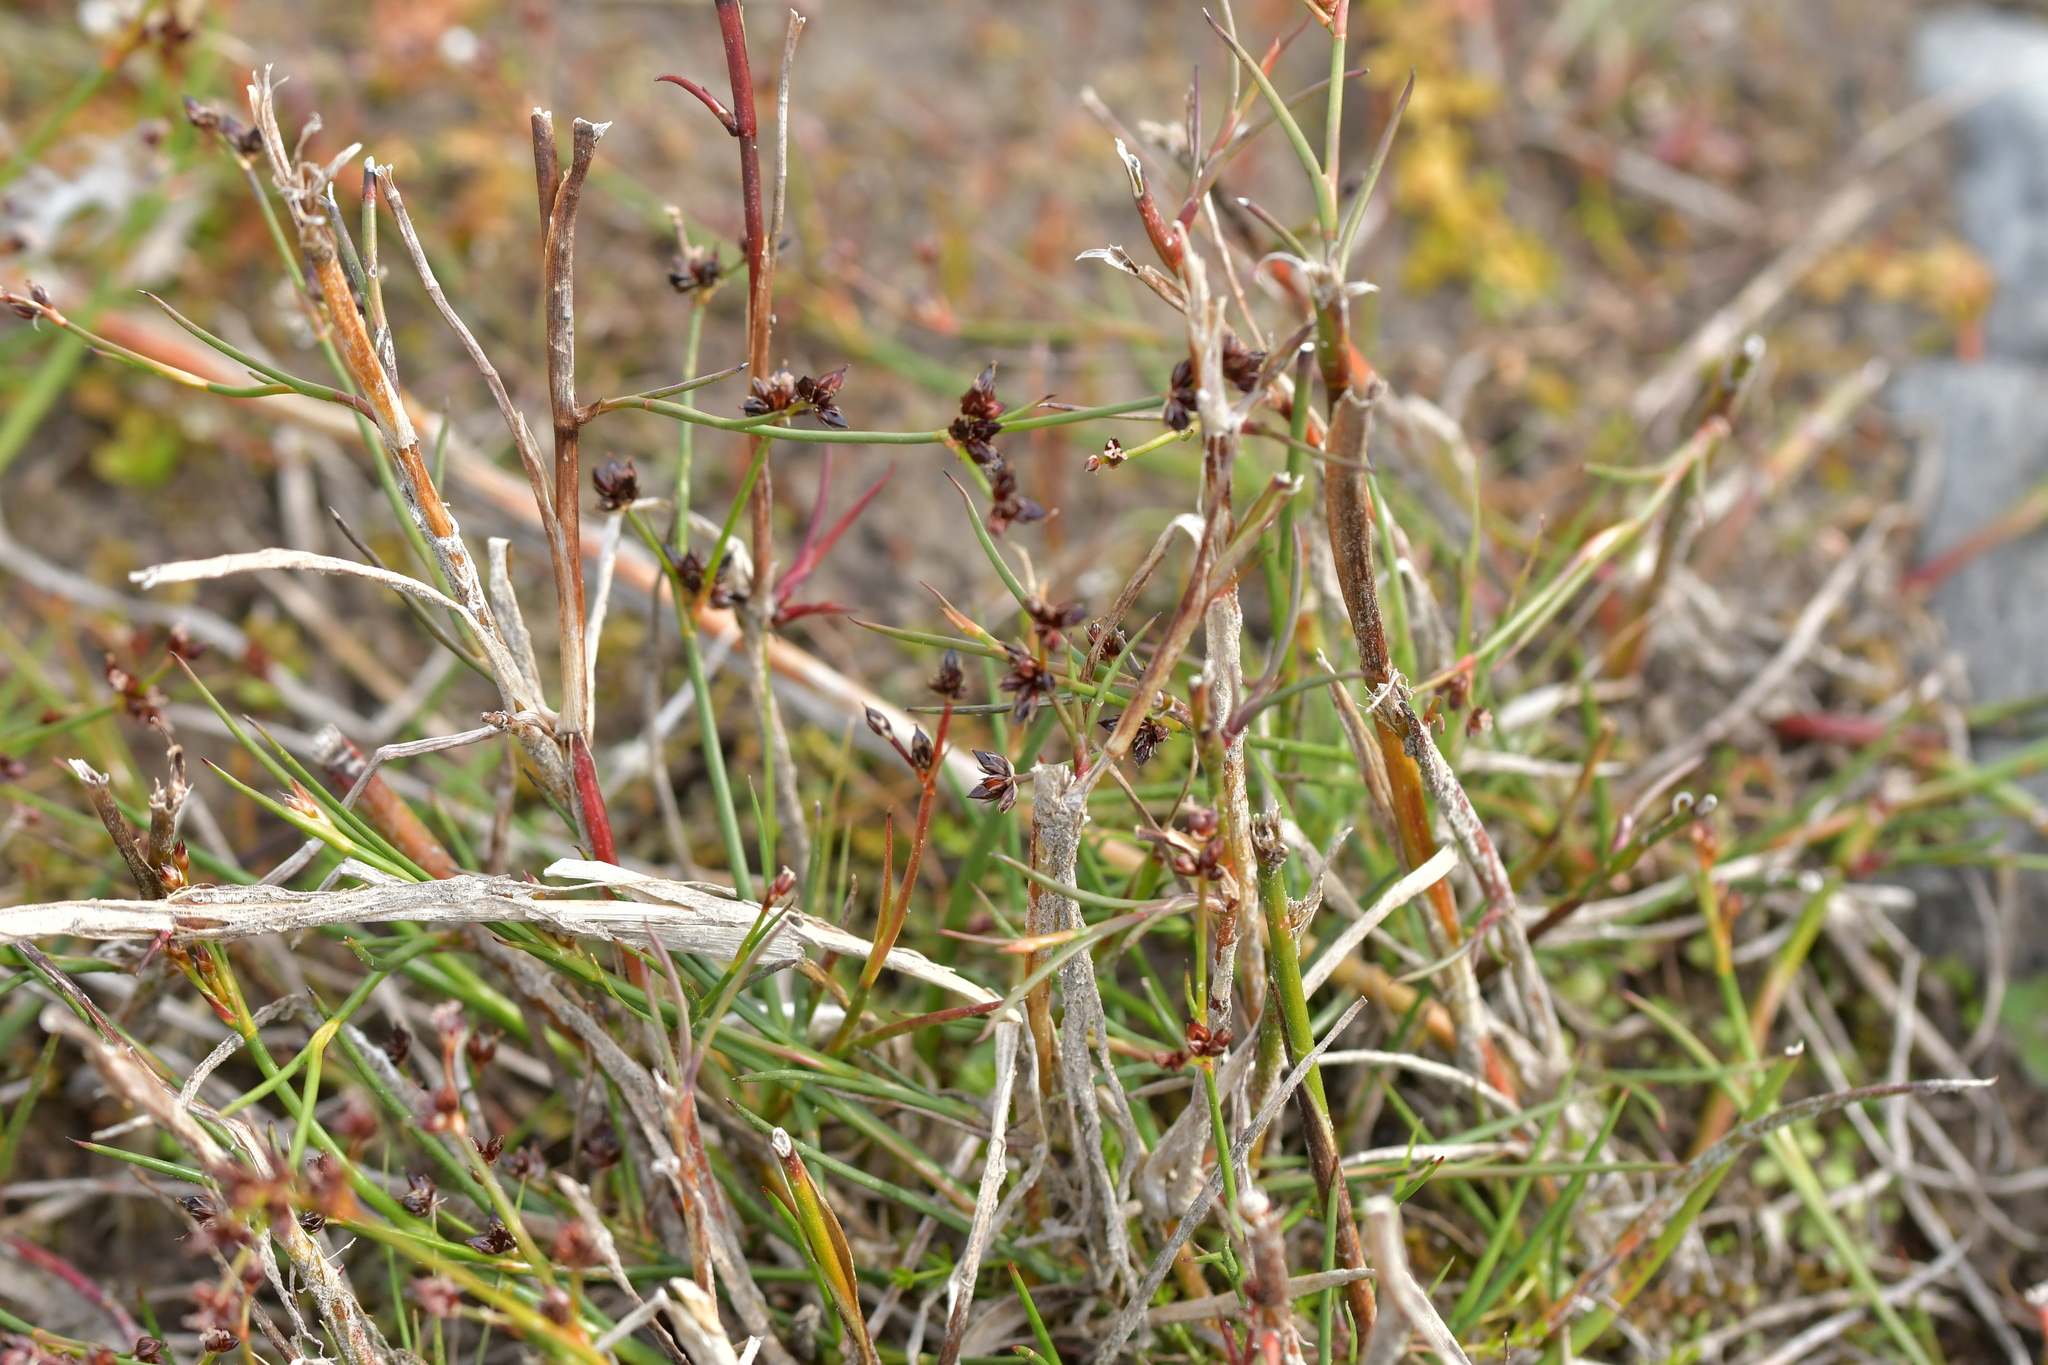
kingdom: Plantae
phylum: Tracheophyta
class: Liliopsida
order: Poales
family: Juncaceae
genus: Juncus
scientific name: Juncus articulatus
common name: Jointed rush
